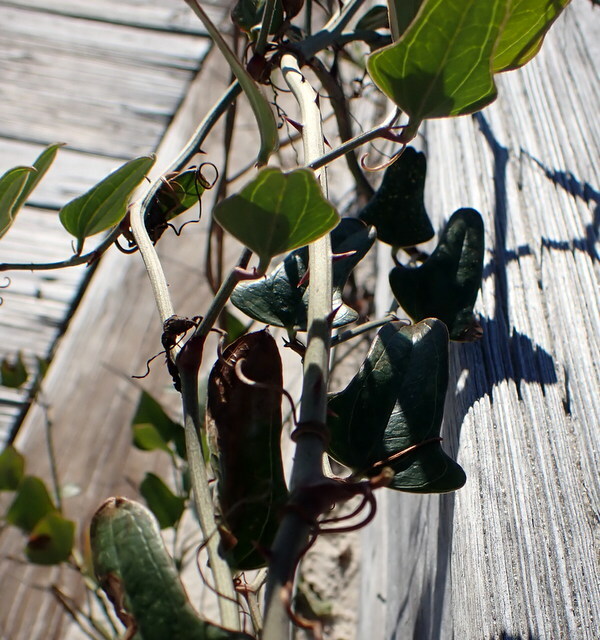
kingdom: Plantae
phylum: Tracheophyta
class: Liliopsida
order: Liliales
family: Smilacaceae
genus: Smilax
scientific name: Smilax auriculata
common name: Wild bamboo
